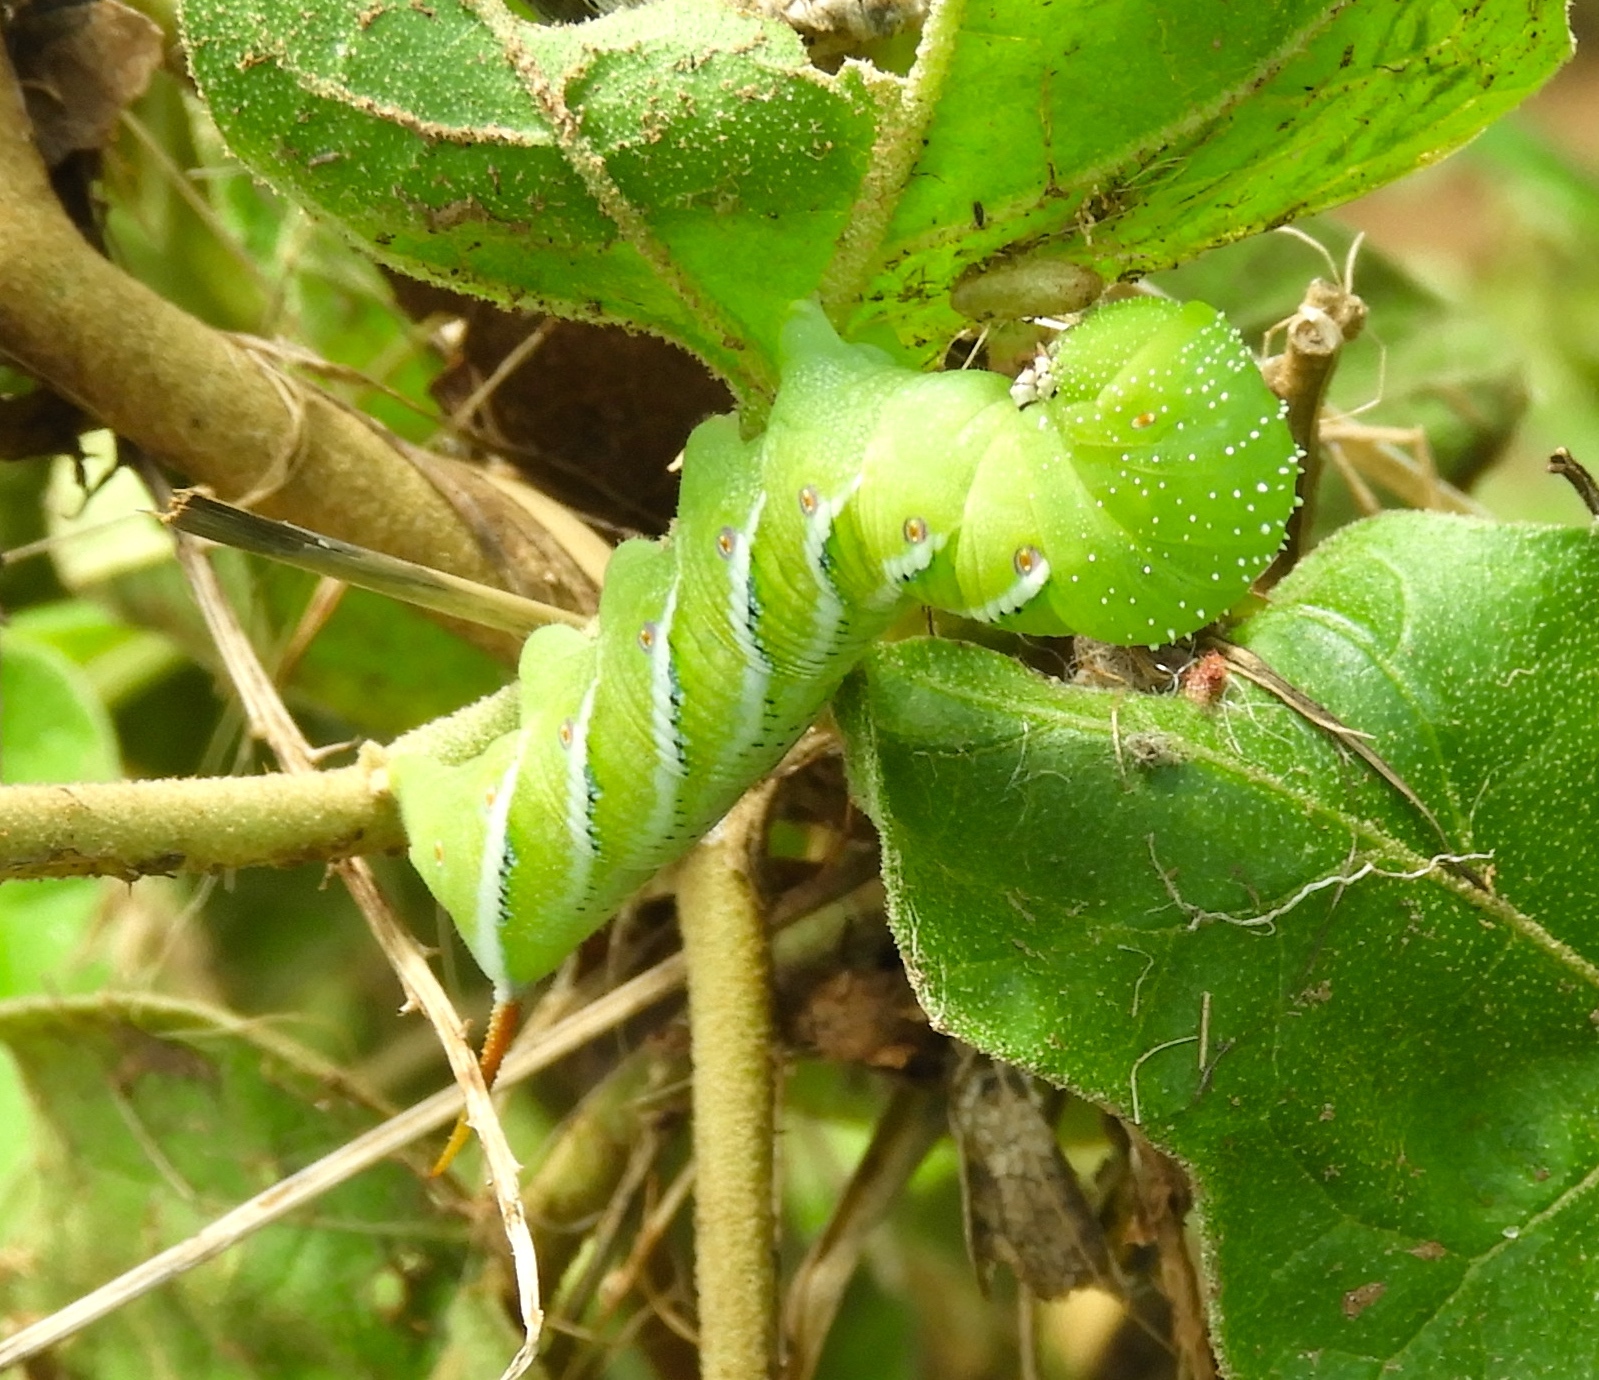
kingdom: Animalia
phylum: Arthropoda
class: Insecta
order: Lepidoptera
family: Sphingidae
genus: Manduca
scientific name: Manduca sexta
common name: Carolina sphinx
